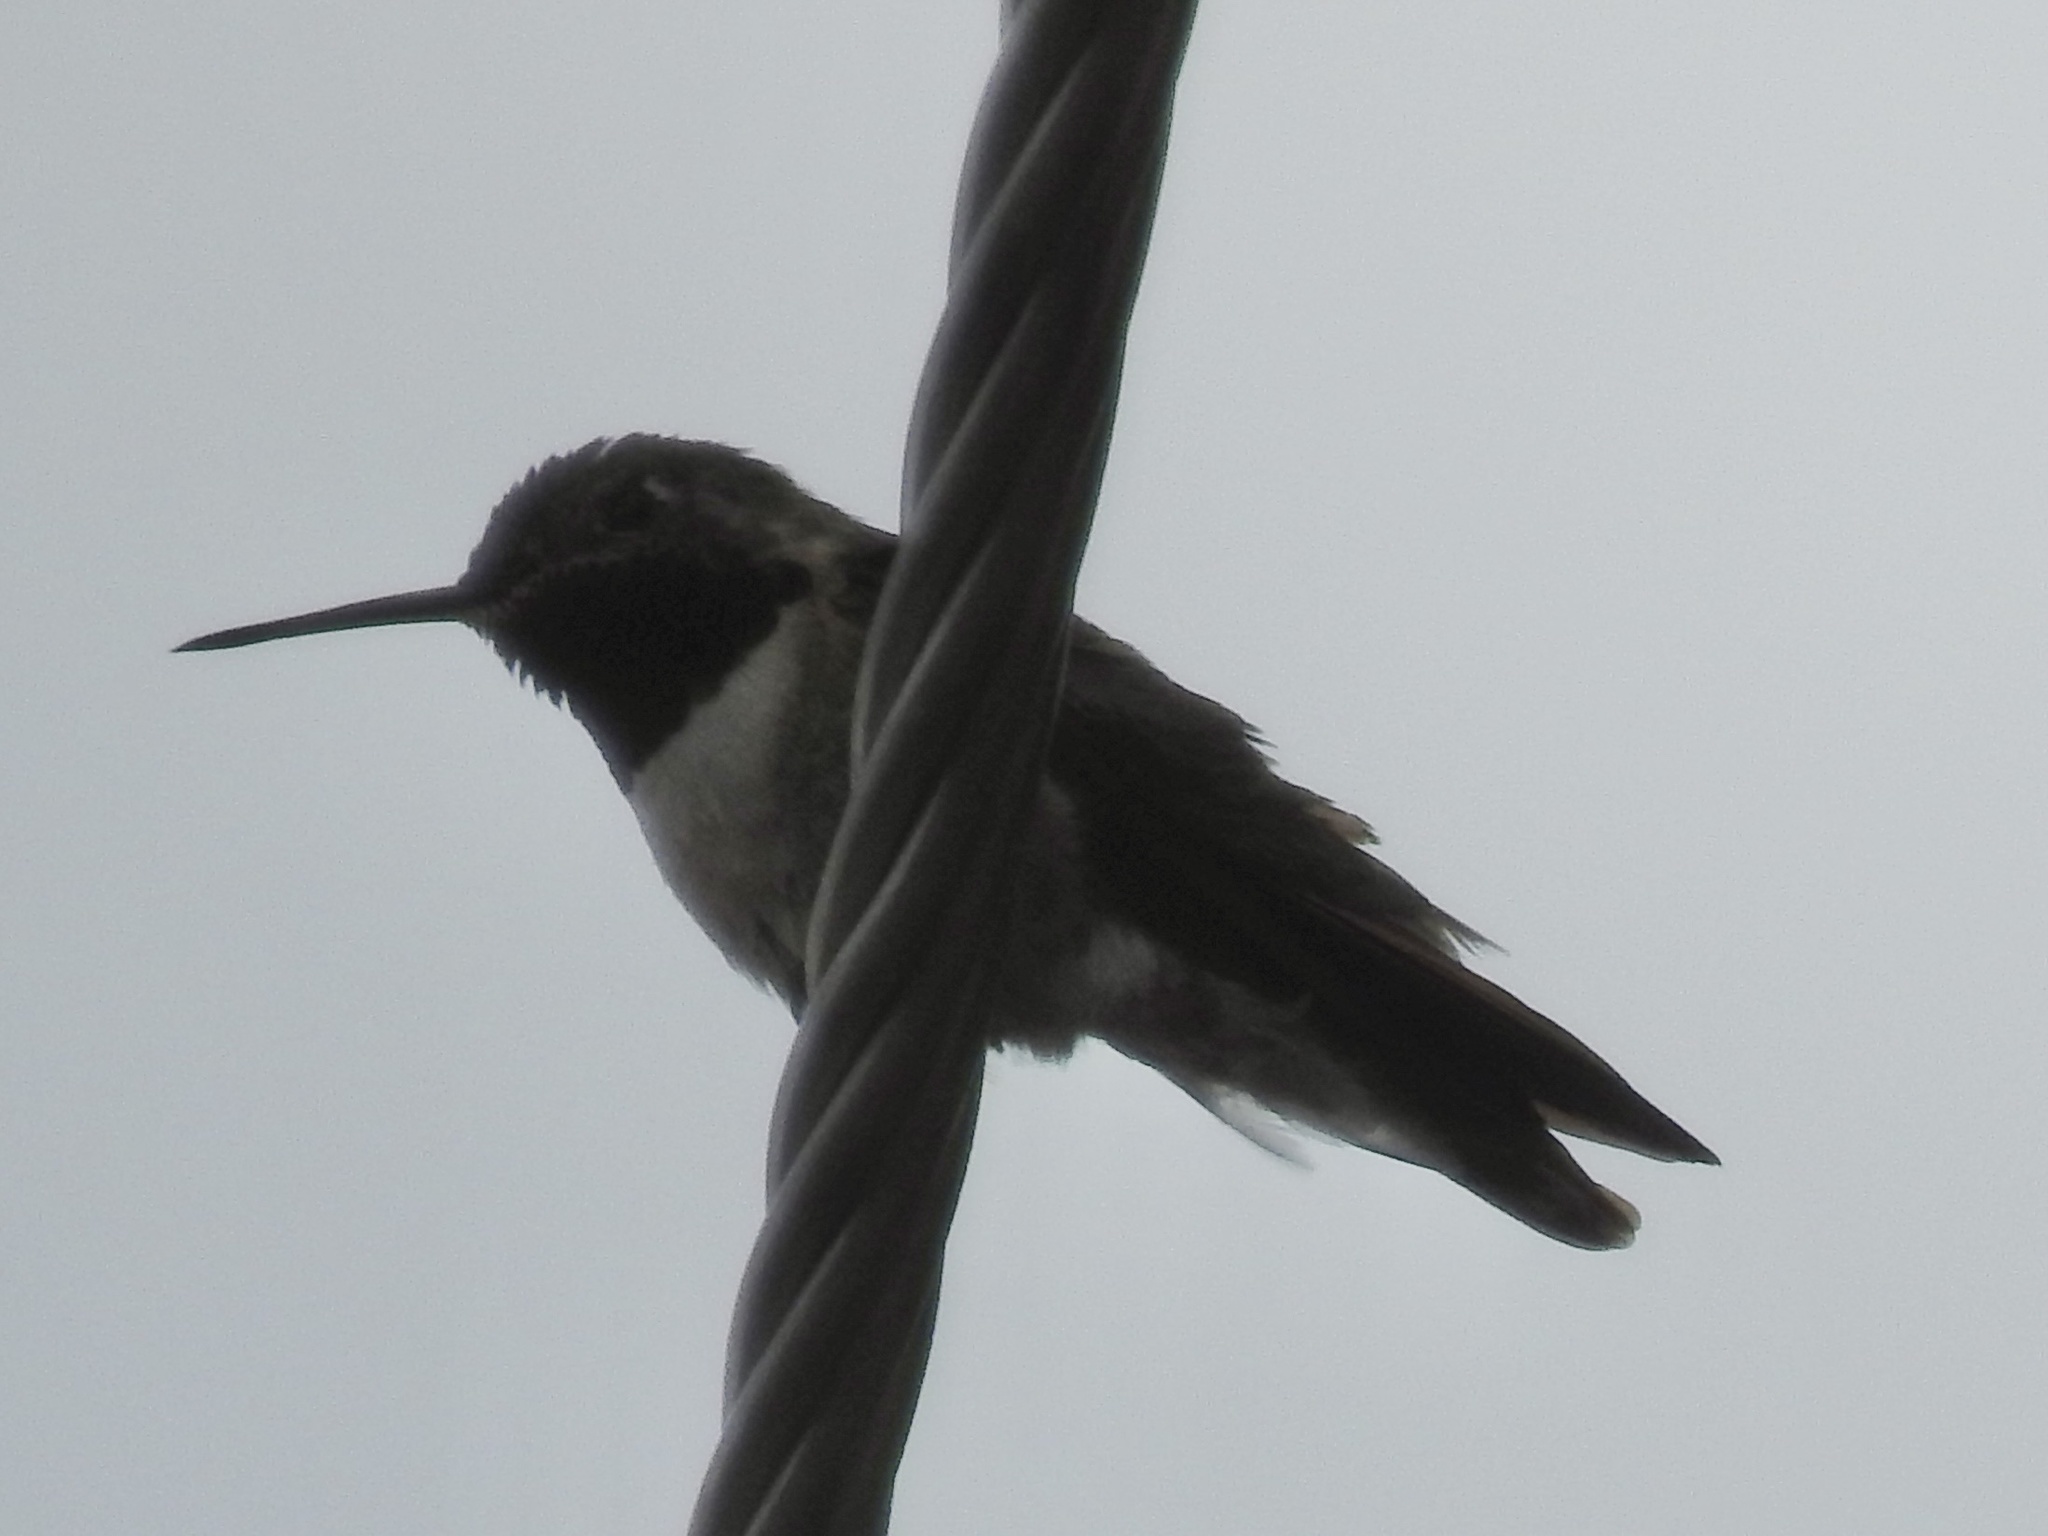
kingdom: Animalia
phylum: Chordata
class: Aves
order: Apodiformes
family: Trochilidae
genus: Selasphorus
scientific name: Selasphorus platycercus
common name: Broad-tailed hummingbird
